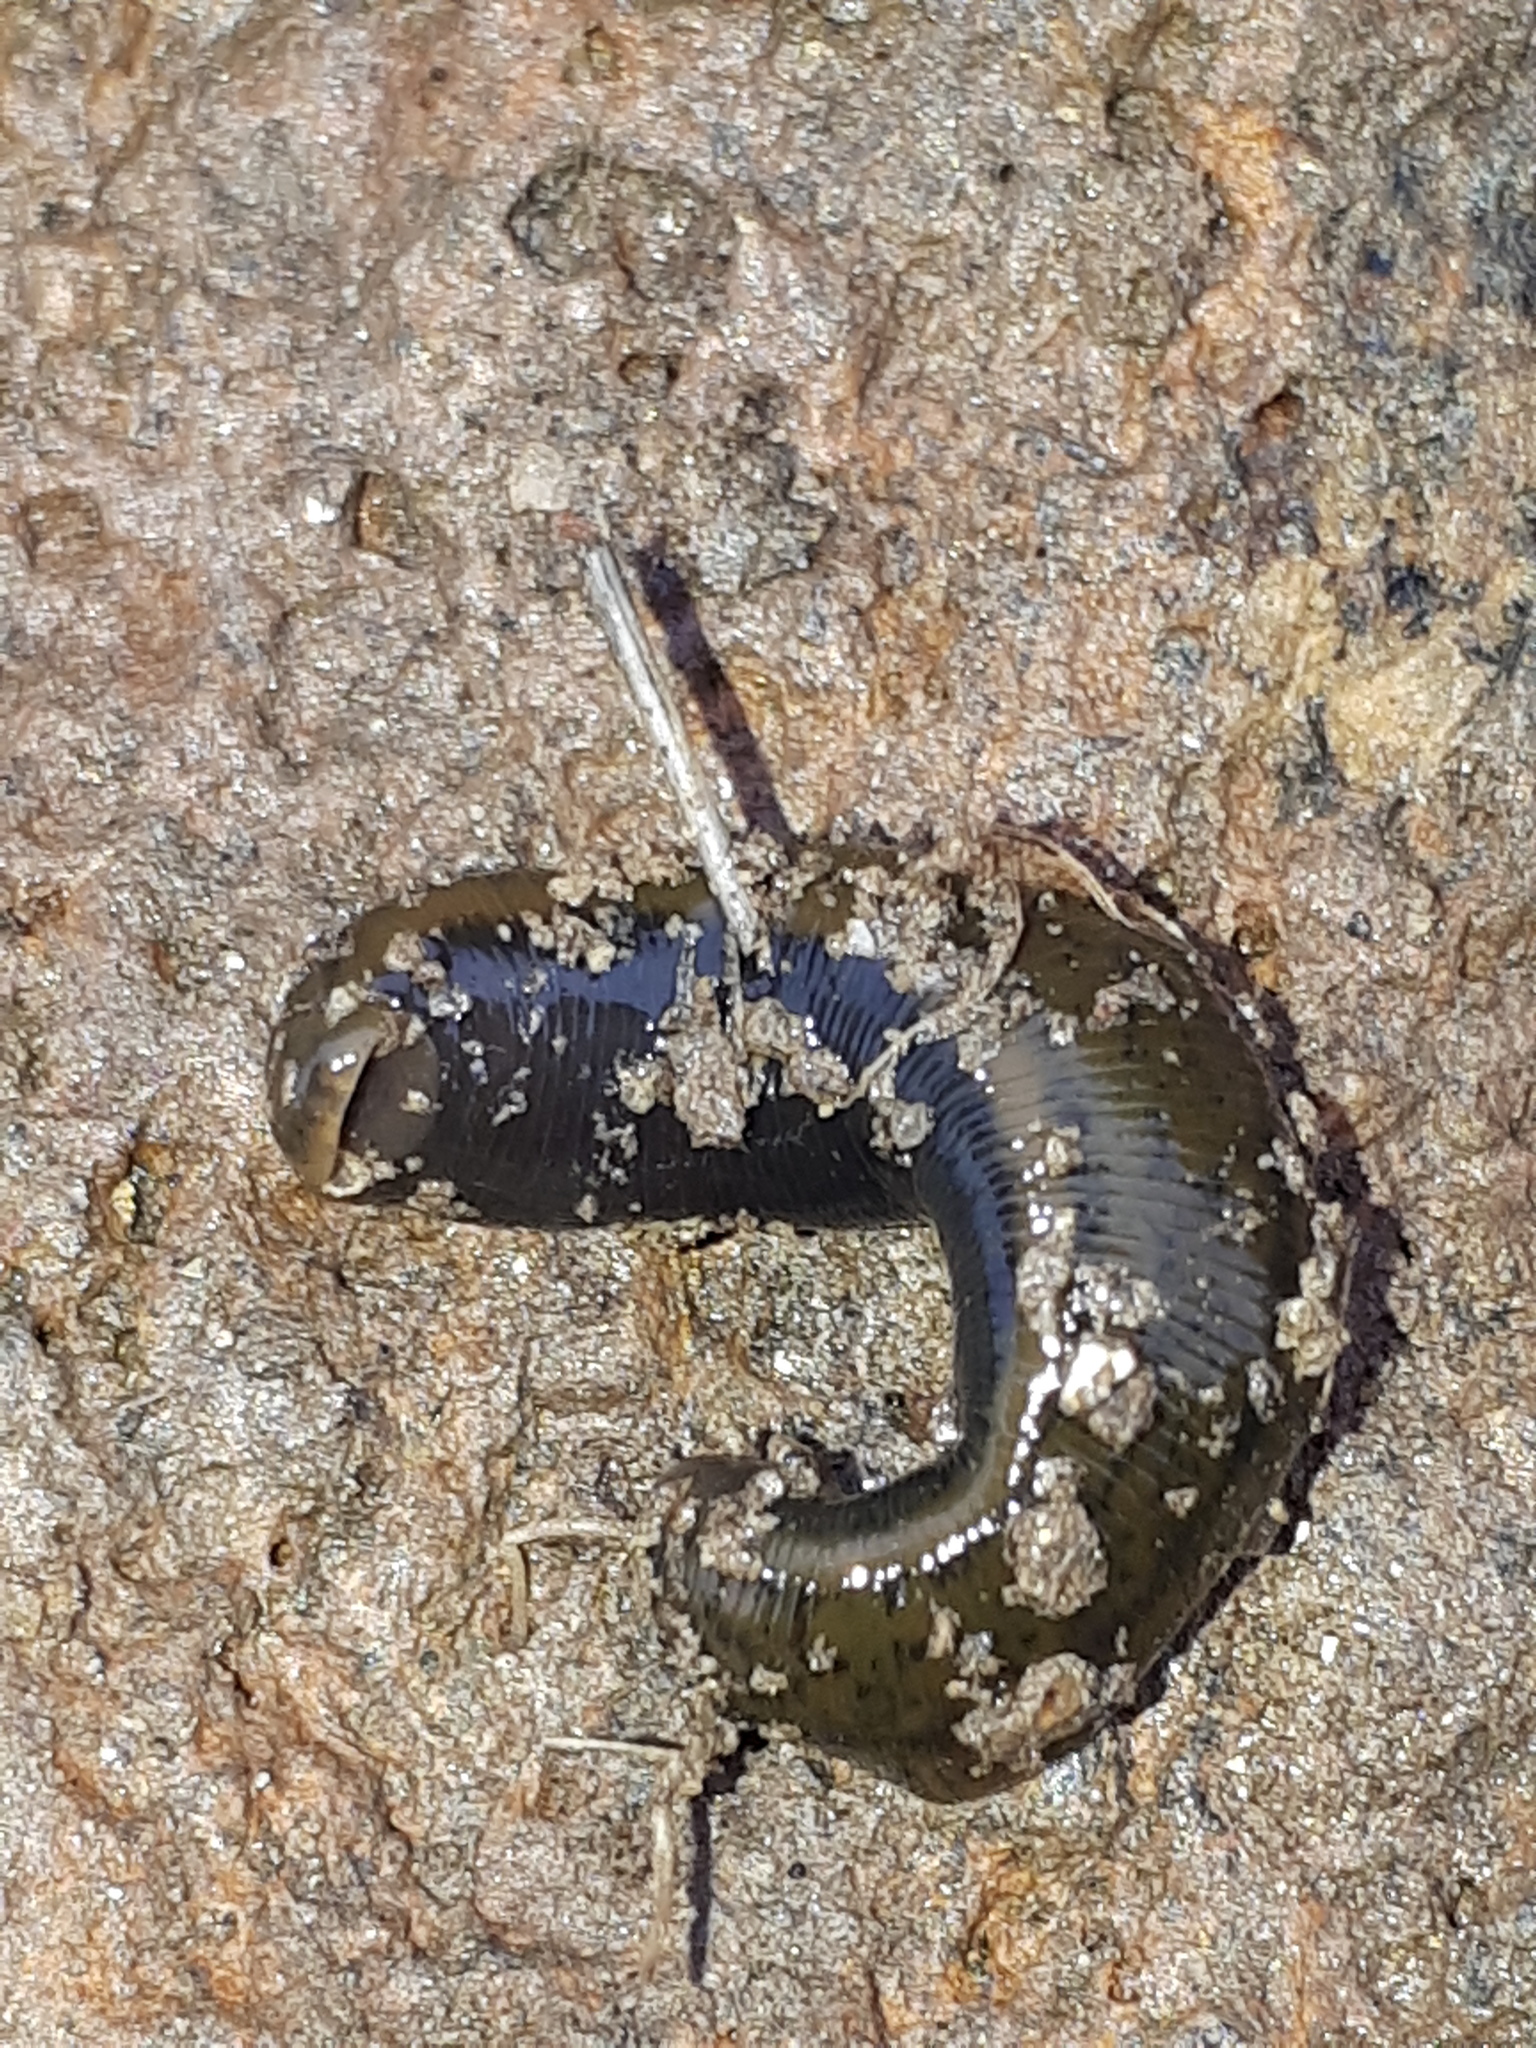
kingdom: Animalia
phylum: Annelida
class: Clitellata
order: Arhynchobdellida
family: Haemopidae
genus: Haemopis
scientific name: Haemopis elegans
